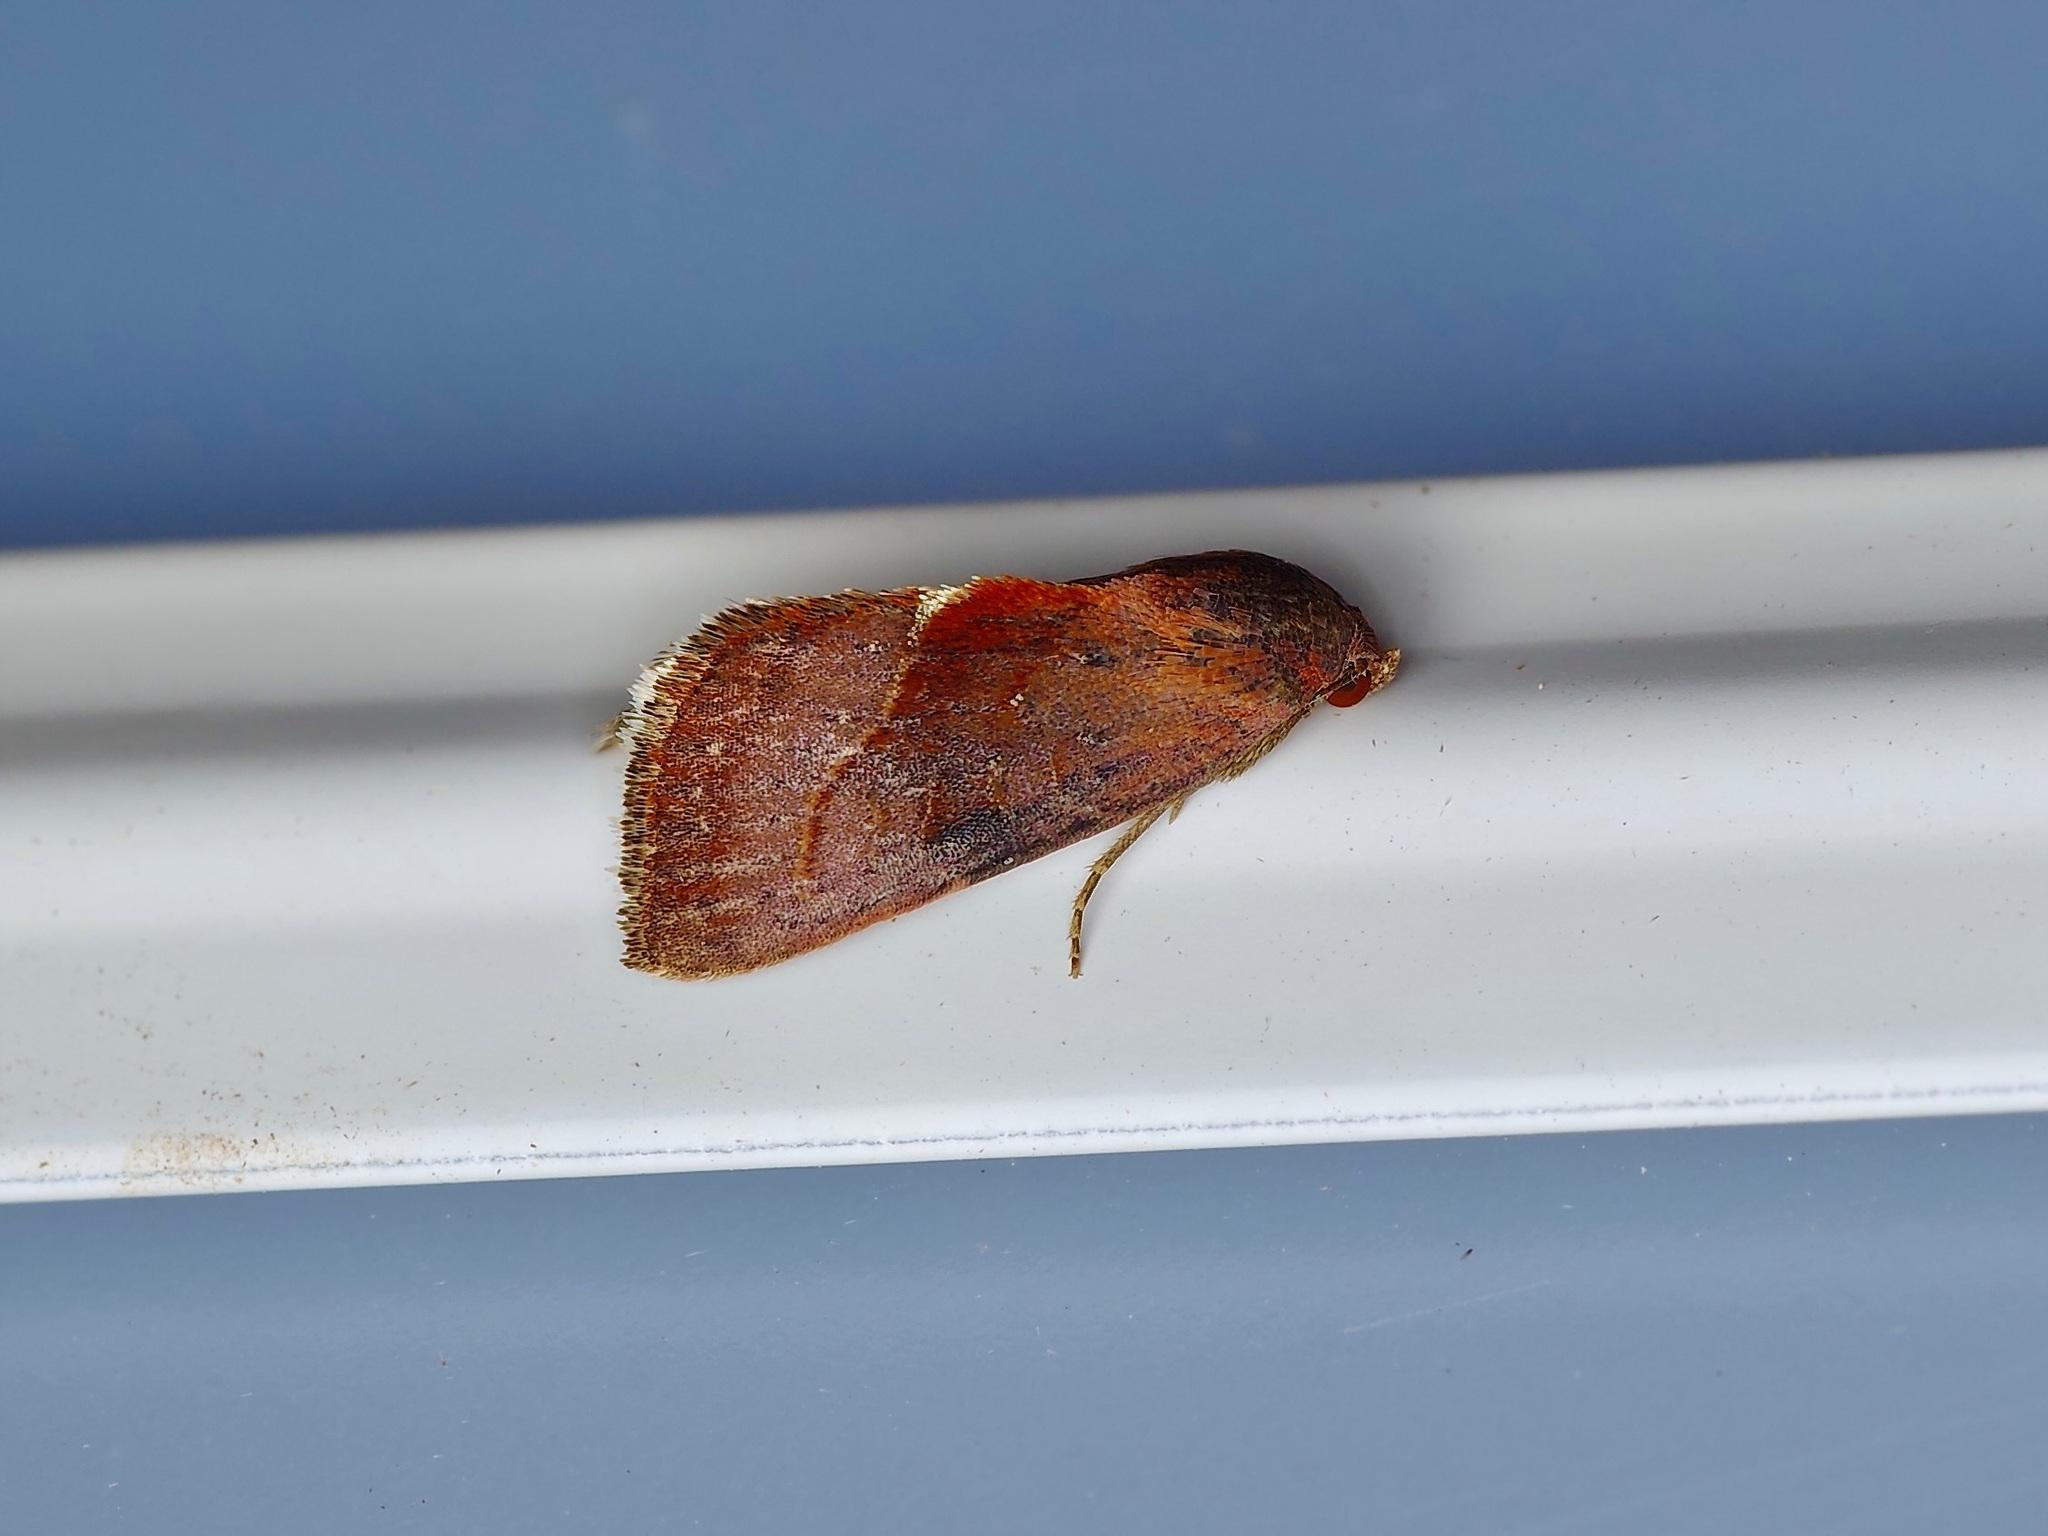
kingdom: Animalia
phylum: Arthropoda
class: Insecta
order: Lepidoptera
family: Noctuidae
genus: Galgula
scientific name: Galgula partita
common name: Wedgeling
